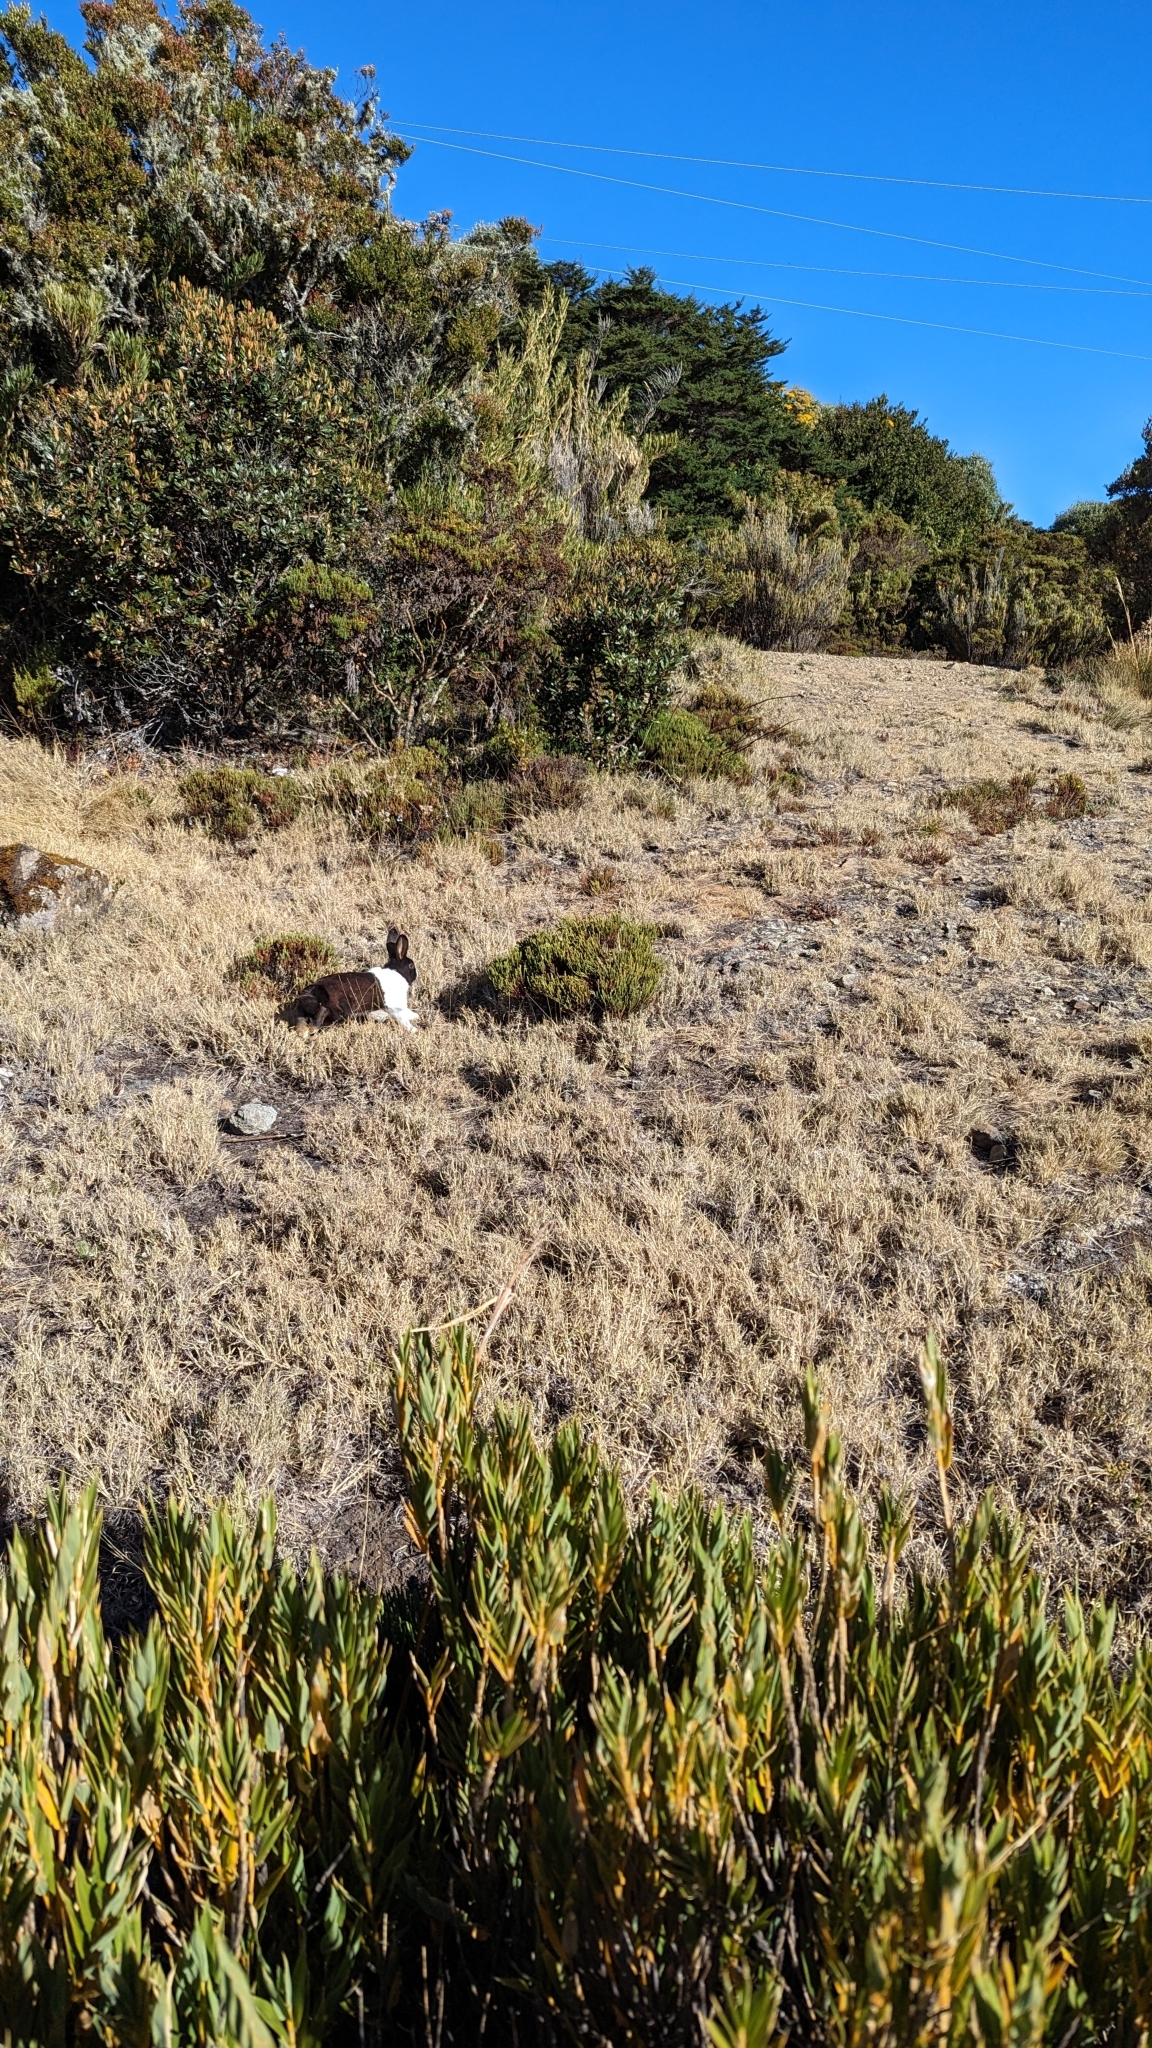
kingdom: Animalia
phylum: Chordata
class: Mammalia
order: Lagomorpha
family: Leporidae
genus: Oryctolagus
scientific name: Oryctolagus cuniculus
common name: European rabbit
